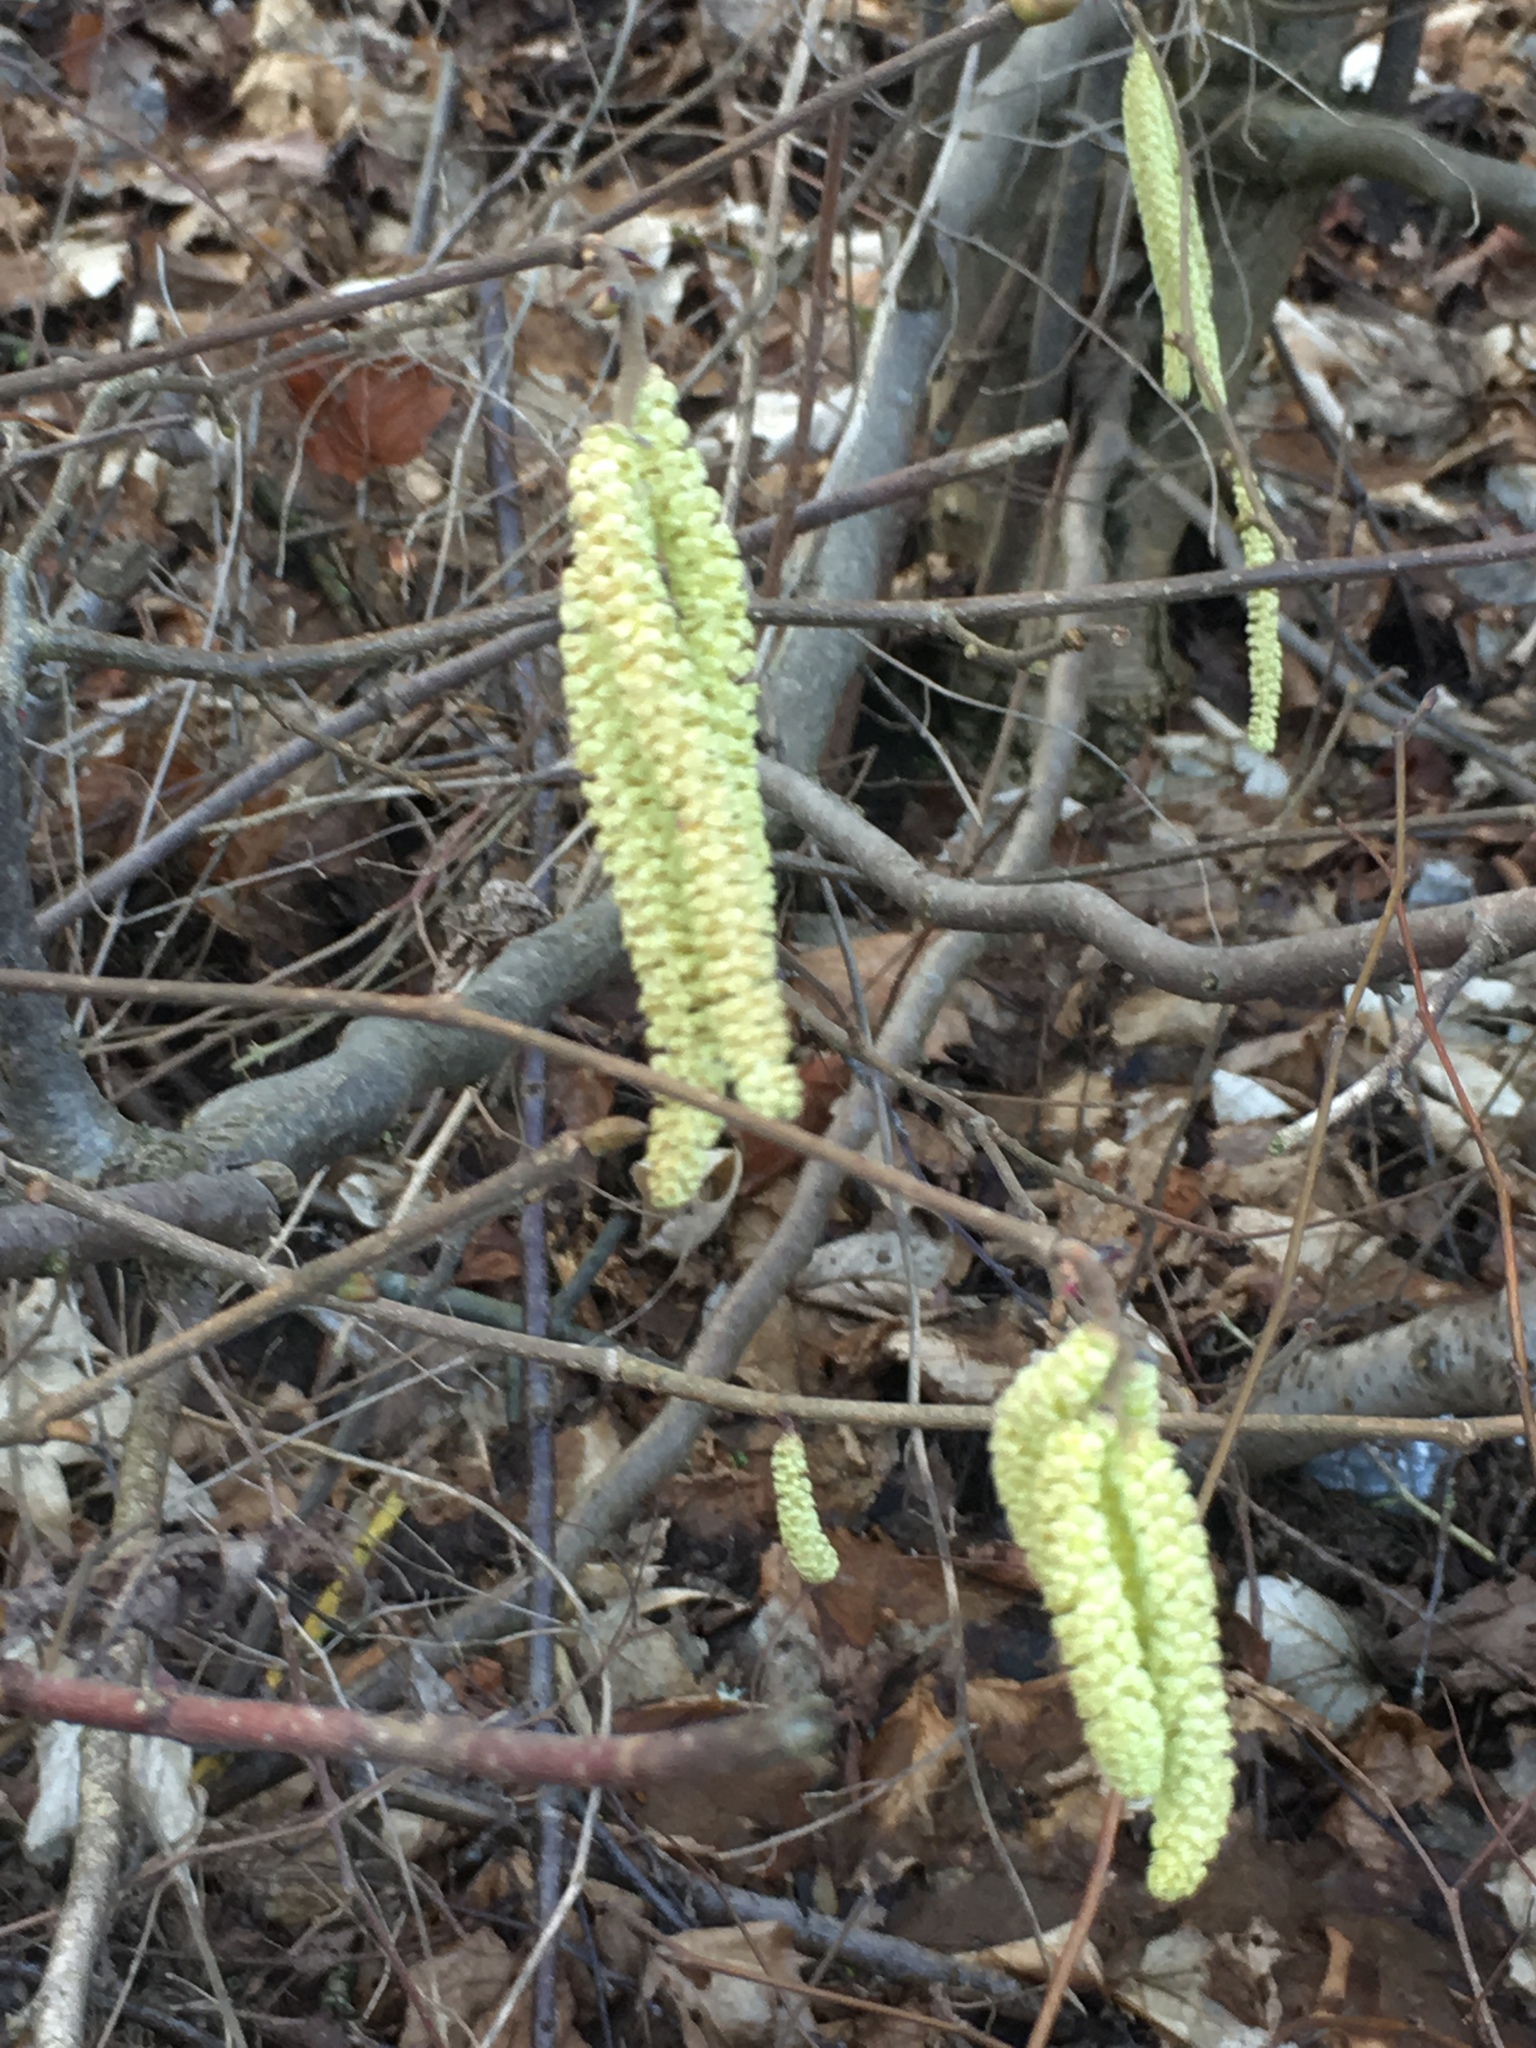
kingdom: Plantae
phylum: Tracheophyta
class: Magnoliopsida
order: Fagales
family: Betulaceae
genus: Corylus
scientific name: Corylus avellana
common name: European hazel
